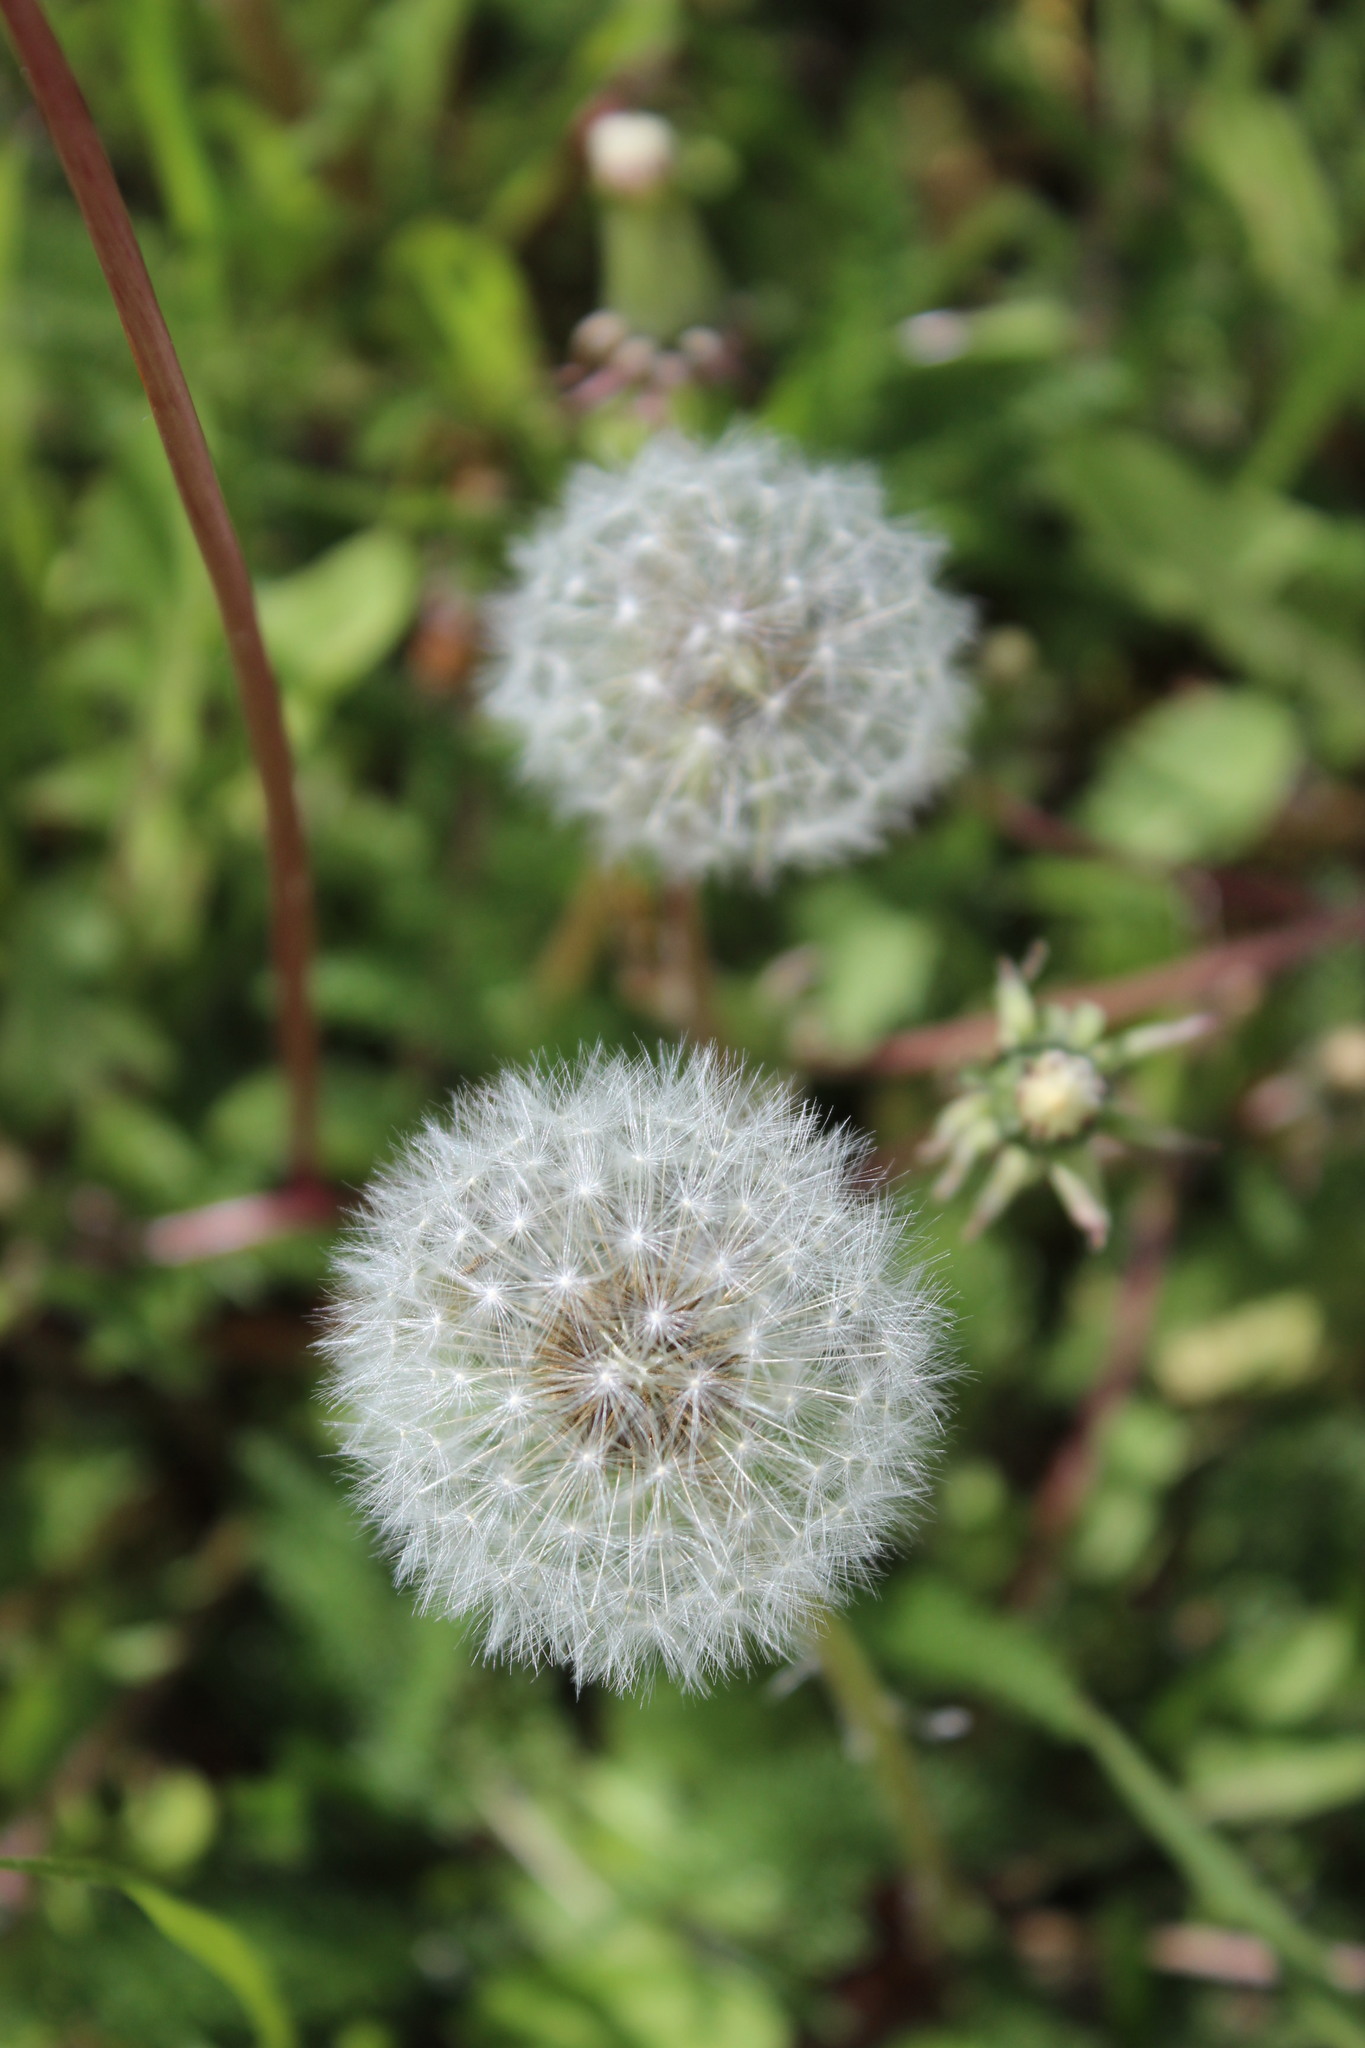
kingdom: Plantae
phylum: Tracheophyta
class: Magnoliopsida
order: Asterales
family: Asteraceae
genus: Taraxacum
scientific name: Taraxacum officinale
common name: Common dandelion
